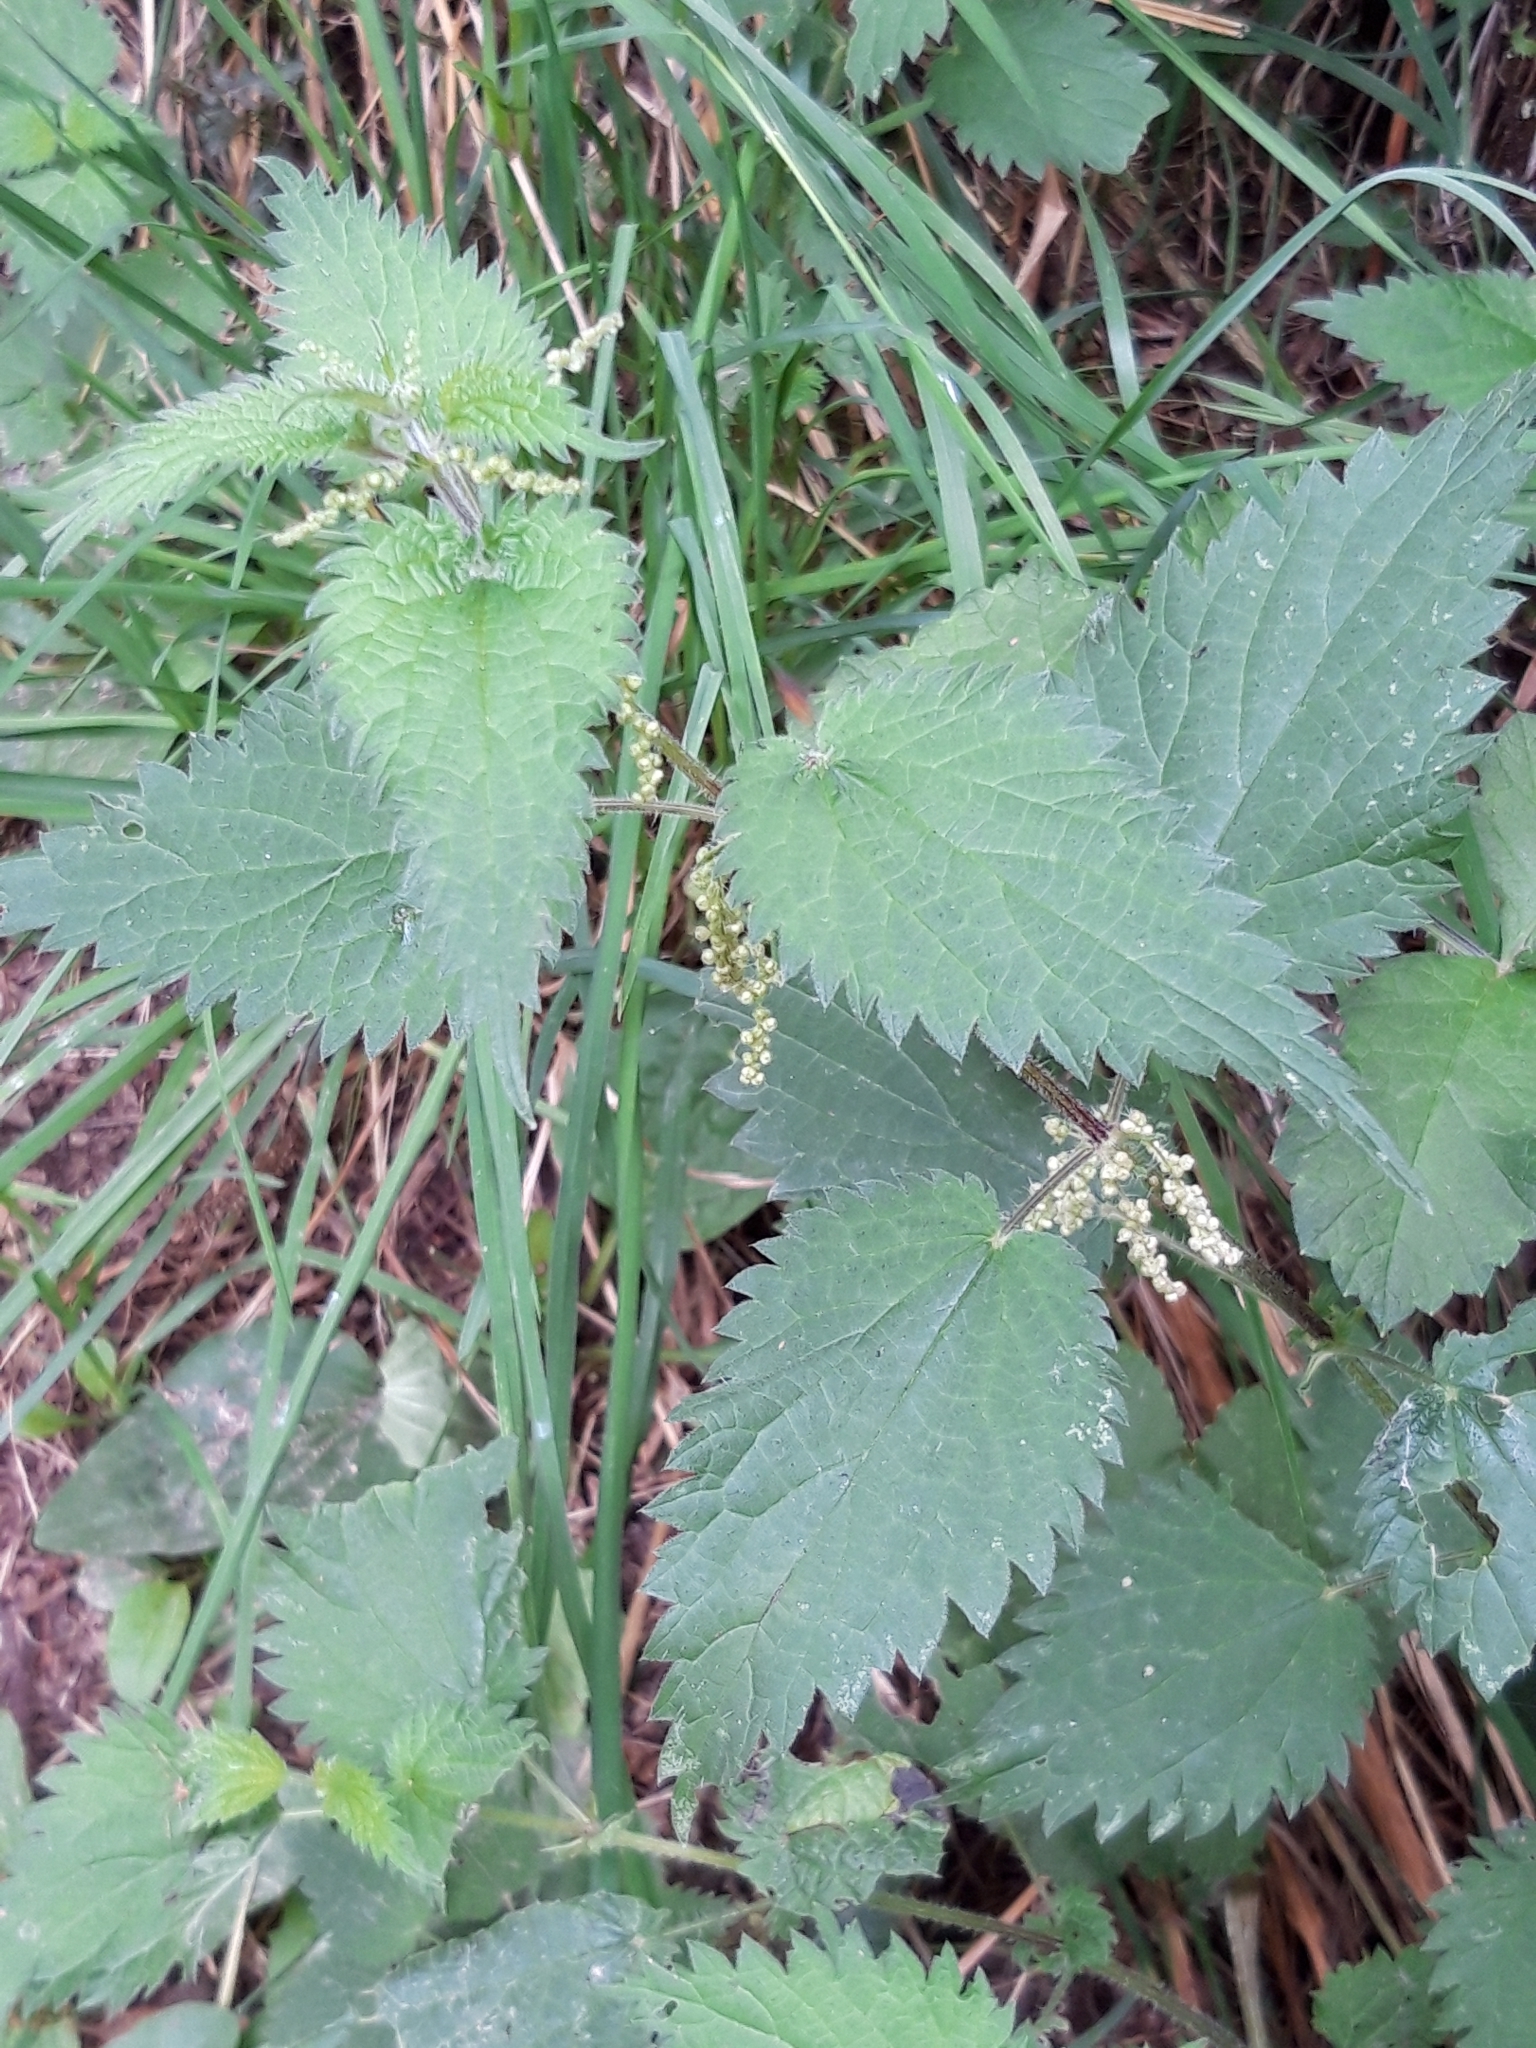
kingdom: Plantae
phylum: Tracheophyta
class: Magnoliopsida
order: Rosales
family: Urticaceae
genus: Urtica
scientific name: Urtica dioica
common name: Common nettle
